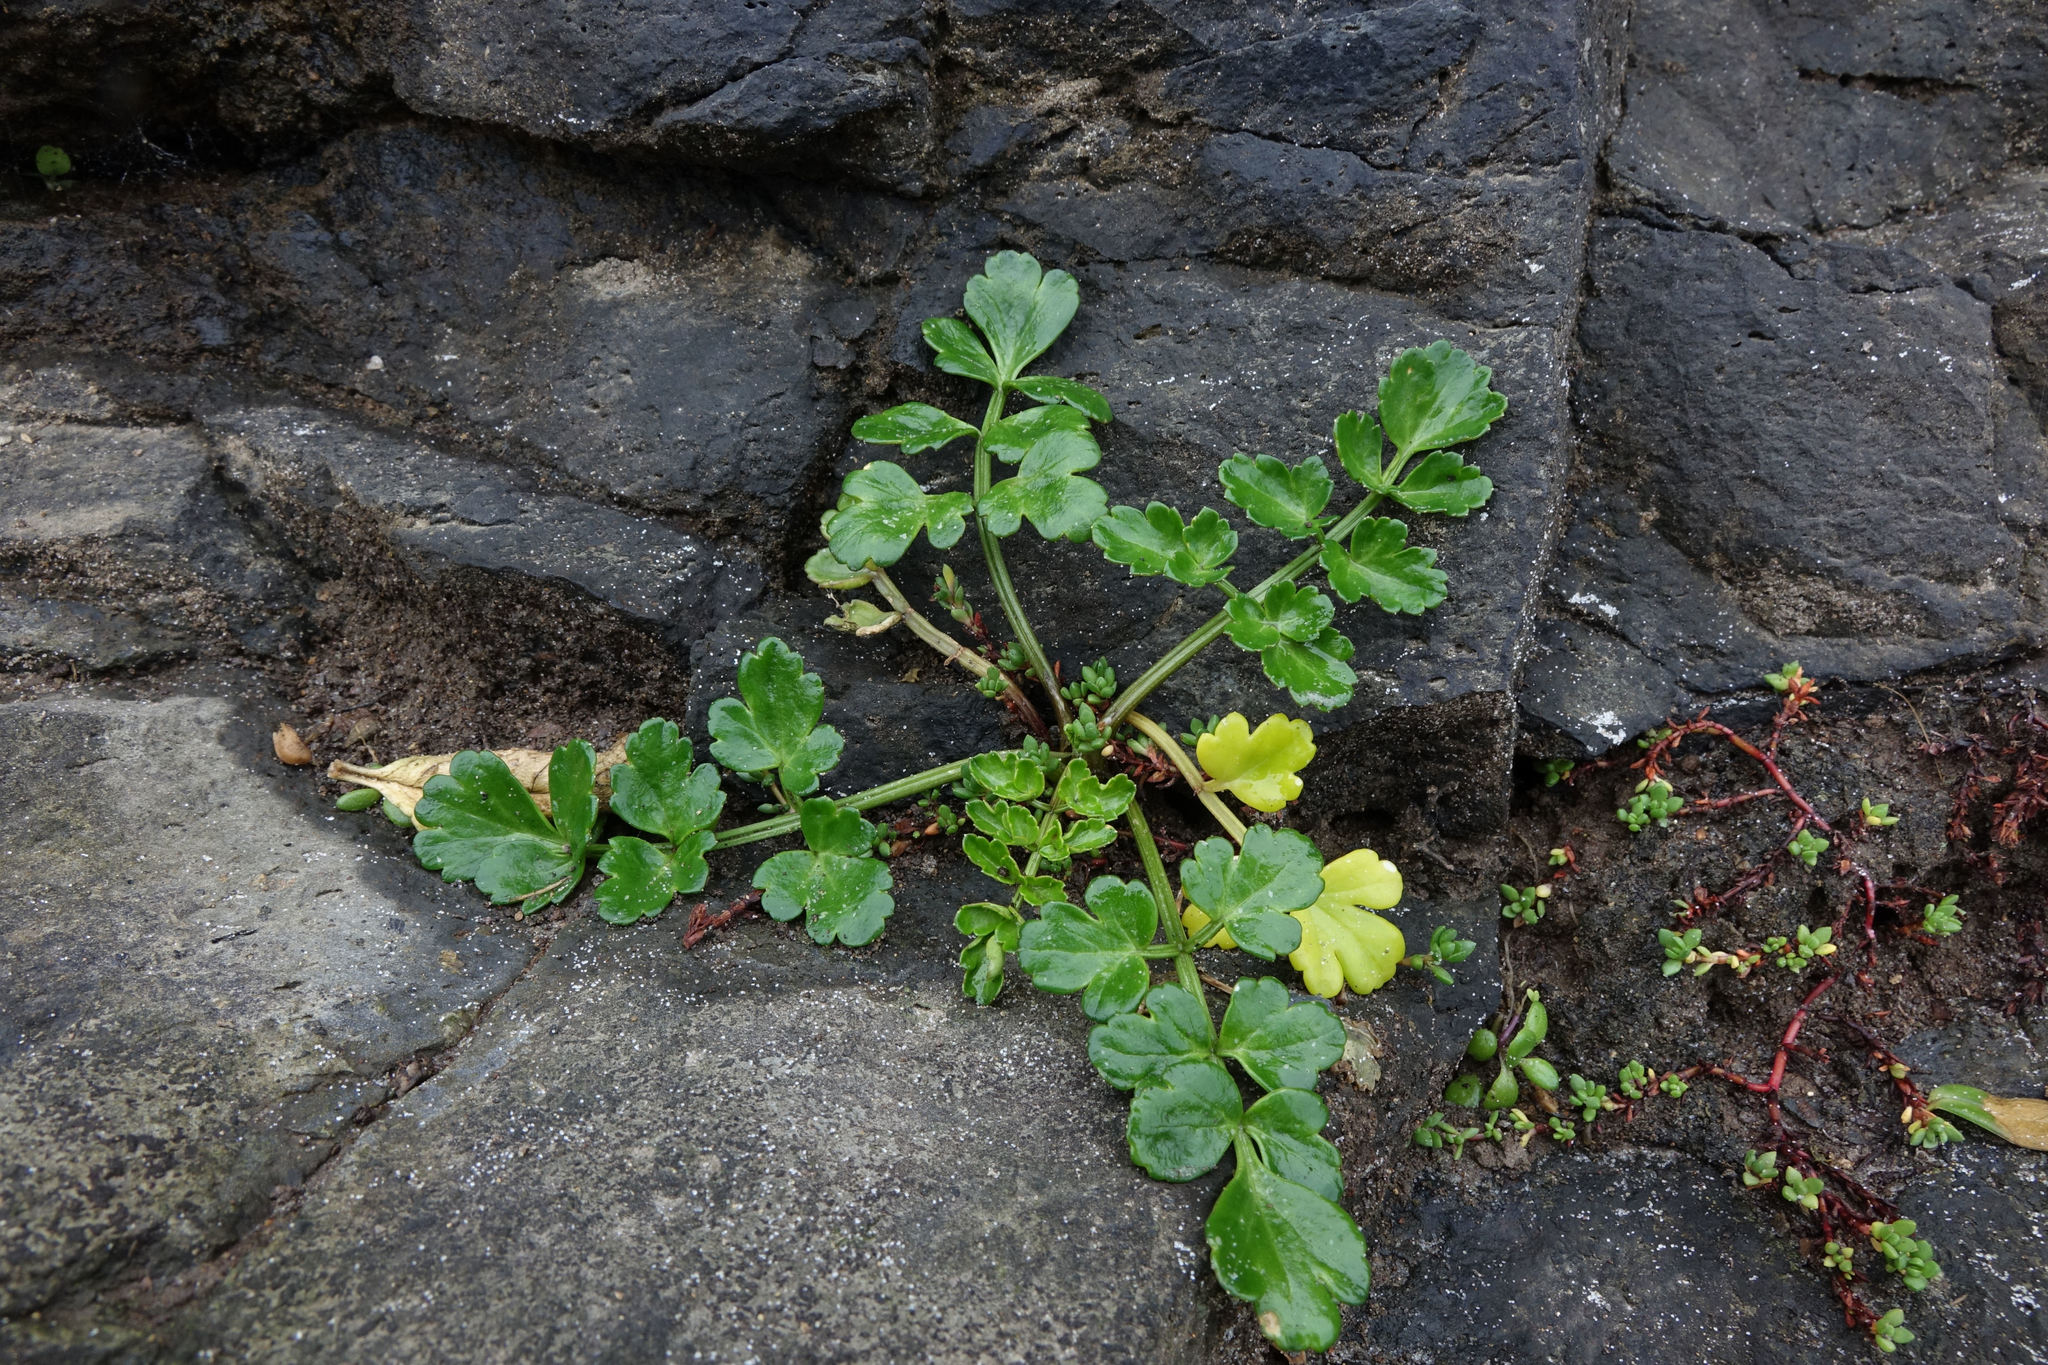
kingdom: Plantae
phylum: Tracheophyta
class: Magnoliopsida
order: Apiales
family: Apiaceae
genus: Apium
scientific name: Apium prostratum
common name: Prostrate marshwort
